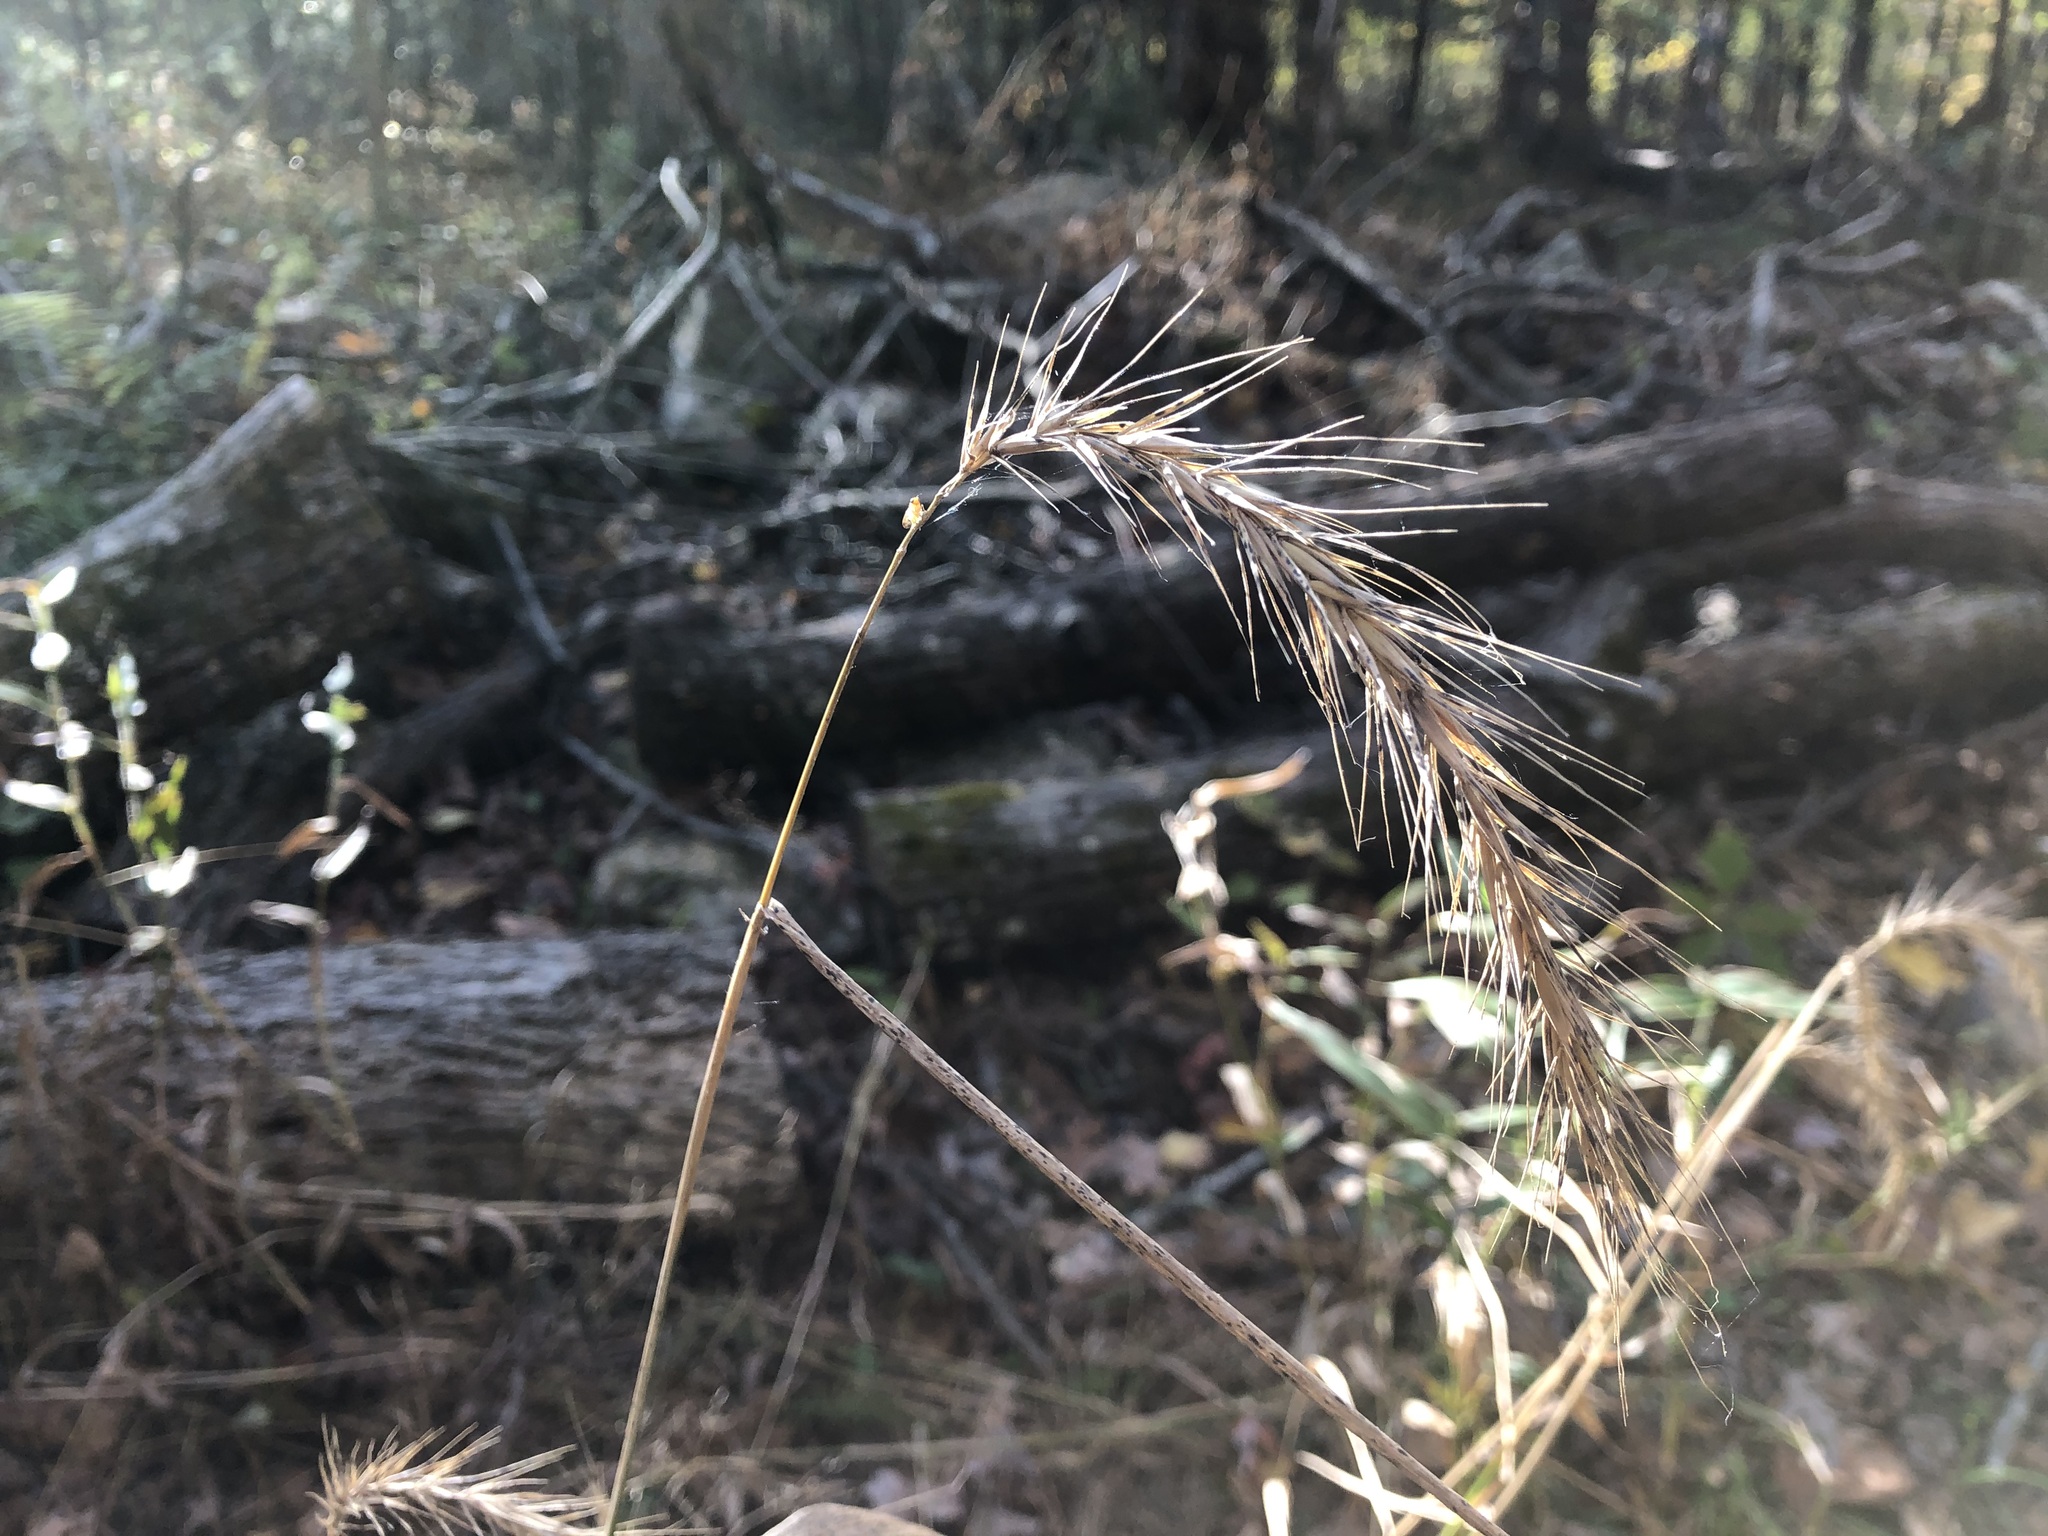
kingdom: Plantae
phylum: Tracheophyta
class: Liliopsida
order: Poales
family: Poaceae
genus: Elymus
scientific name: Elymus riparius
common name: Eastern riverbank wild rye
